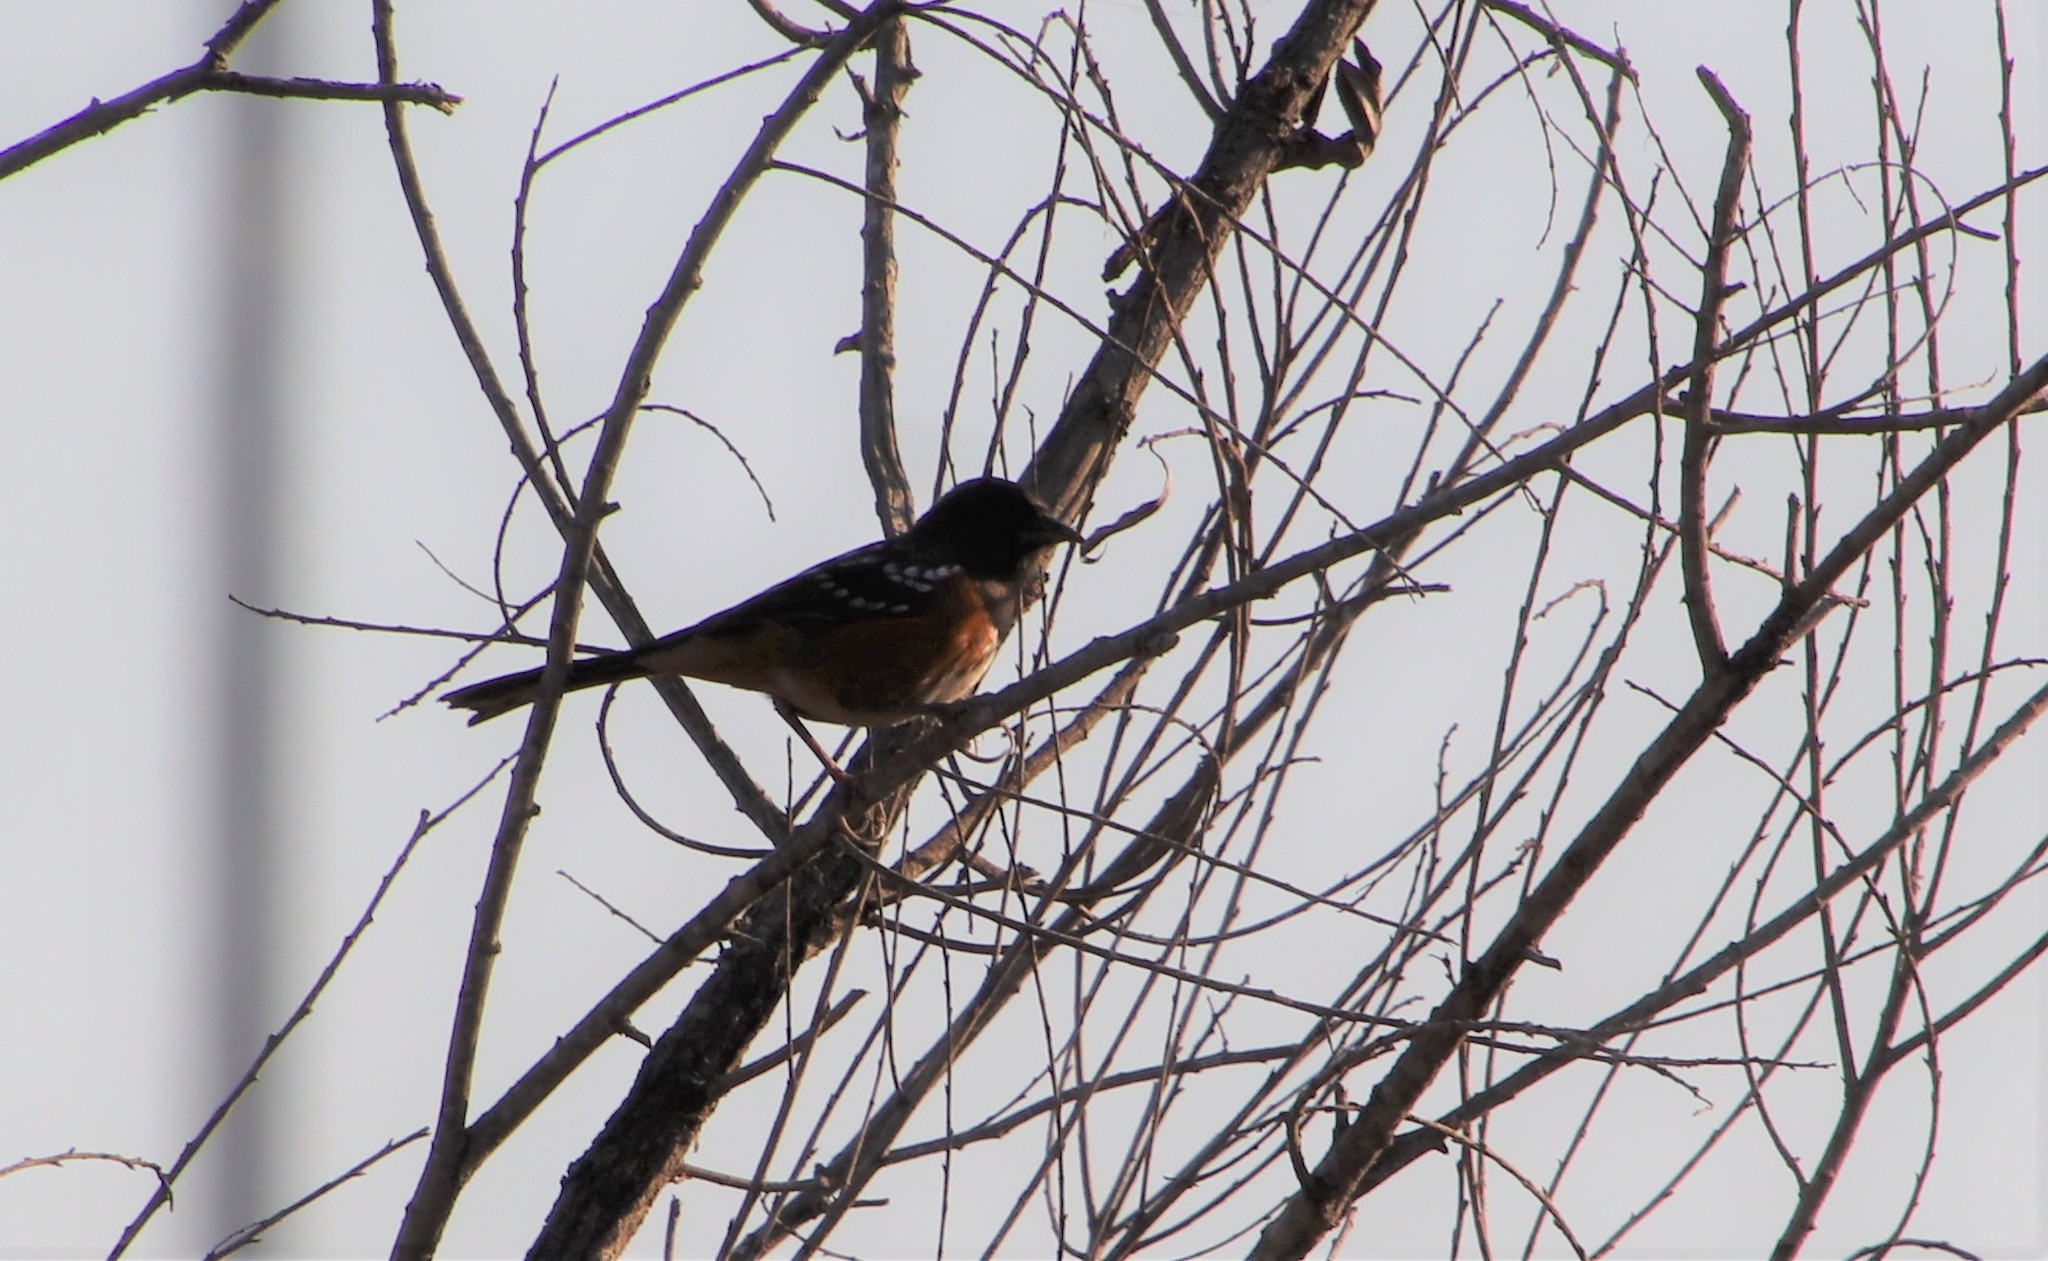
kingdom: Animalia
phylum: Chordata
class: Aves
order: Passeriformes
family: Passerellidae
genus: Pipilo
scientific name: Pipilo maculatus
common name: Spotted towhee
